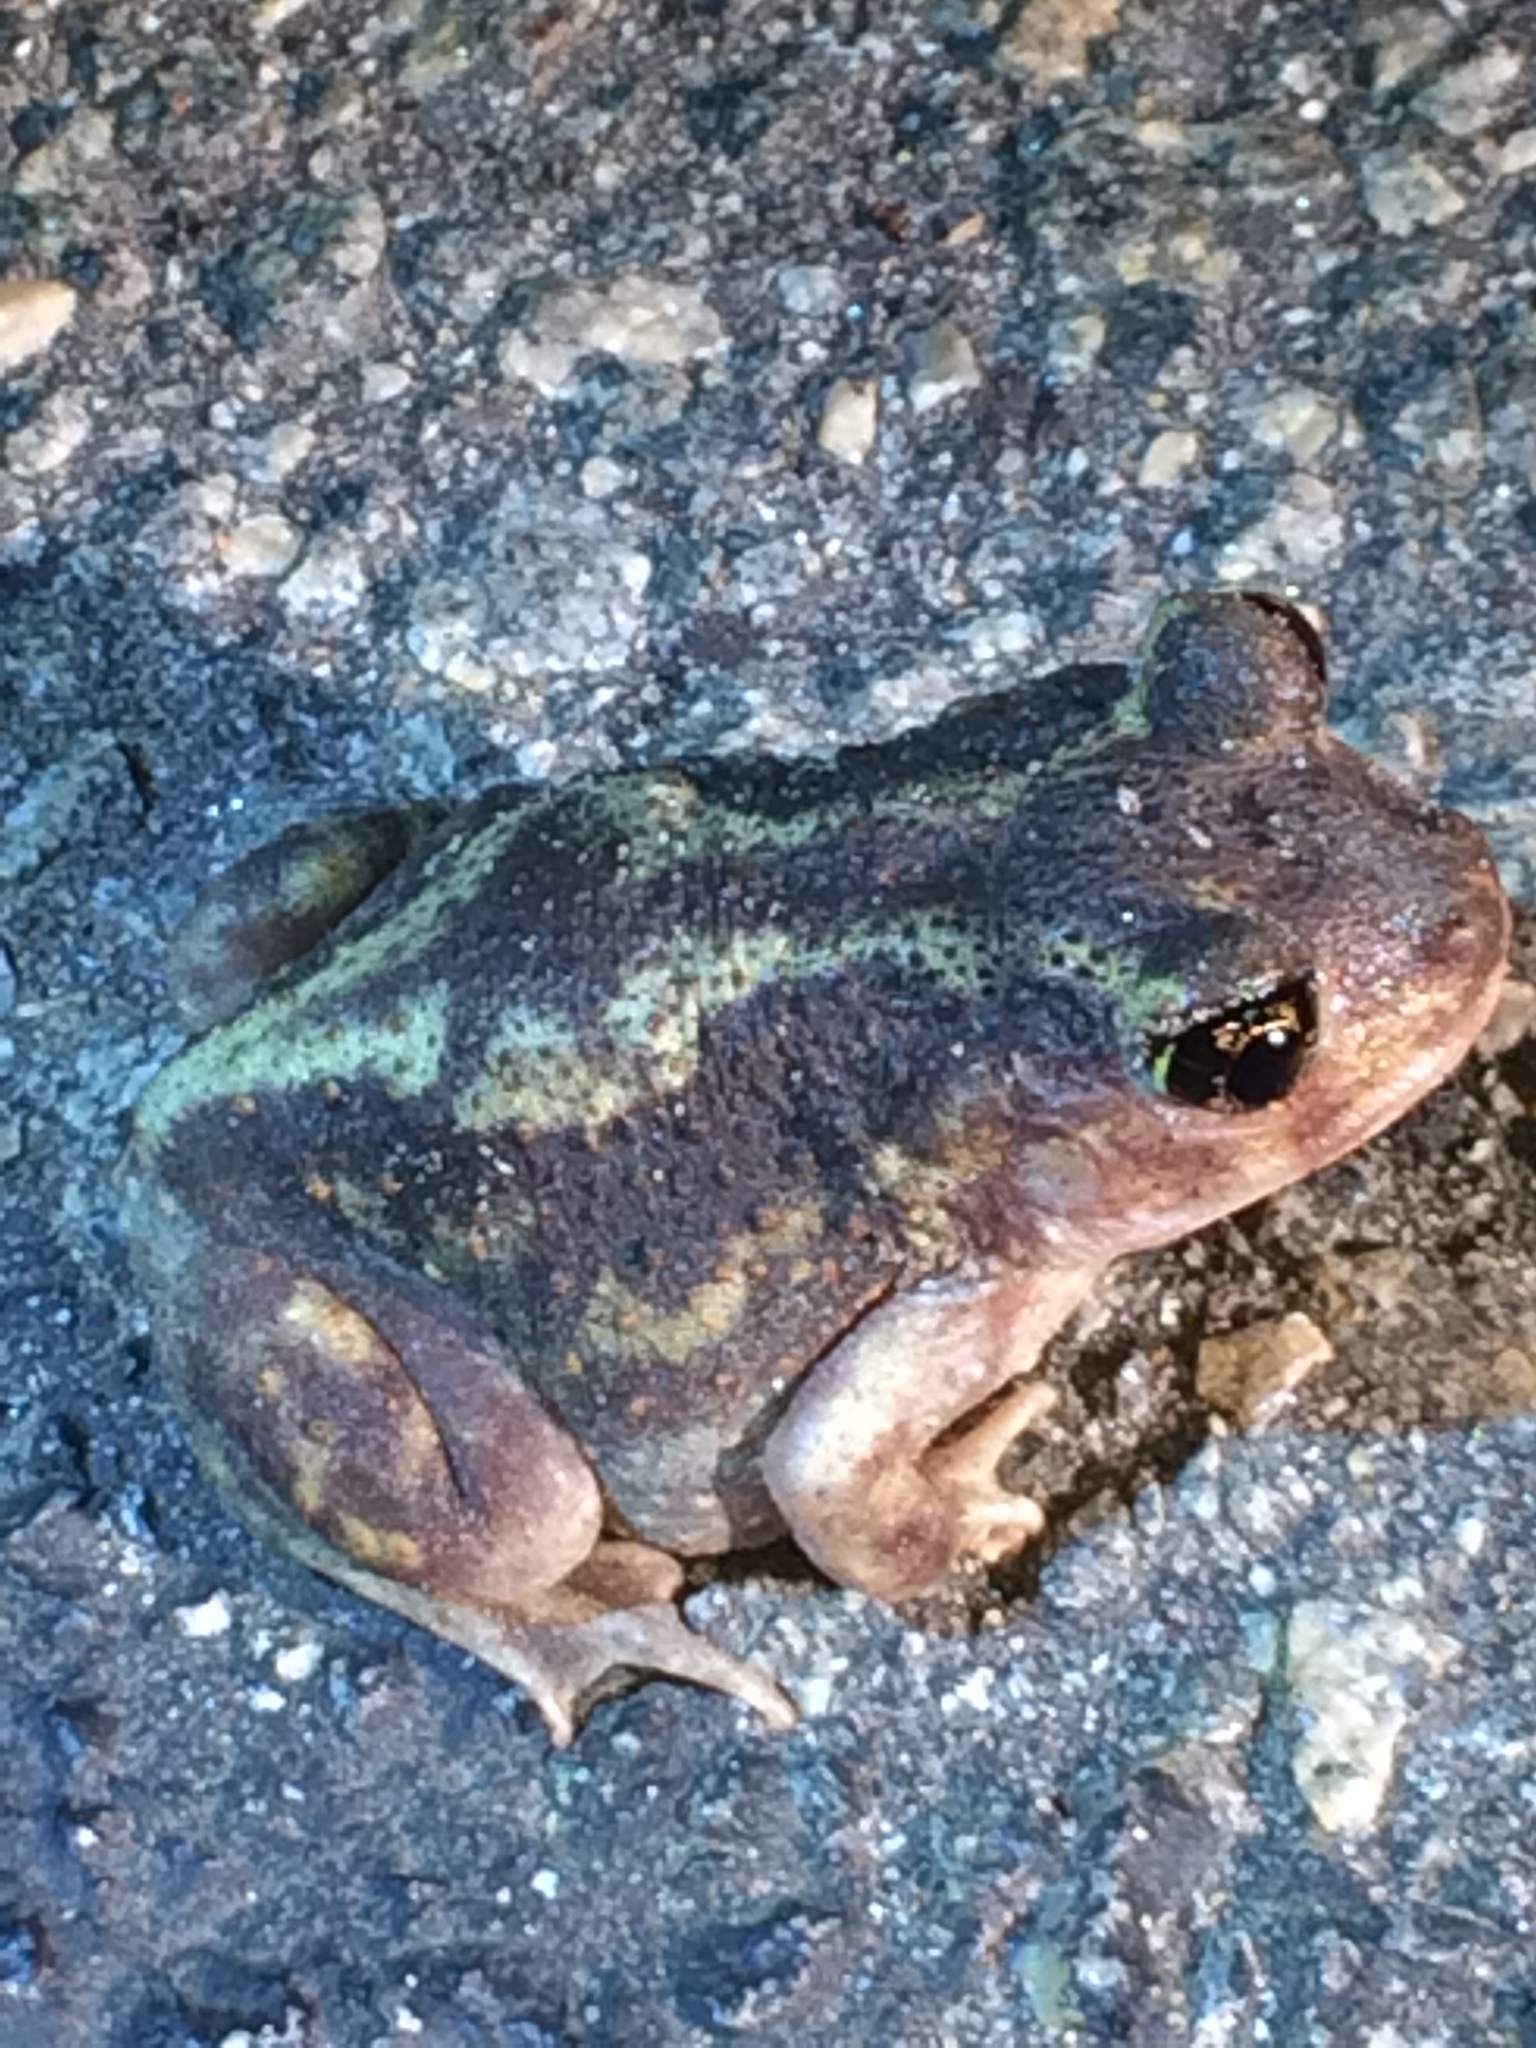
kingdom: Animalia
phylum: Chordata
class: Amphibia
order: Anura
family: Scaphiopodidae
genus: Scaphiopus
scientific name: Scaphiopus holbrookii
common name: Eastern spadefoot toad
